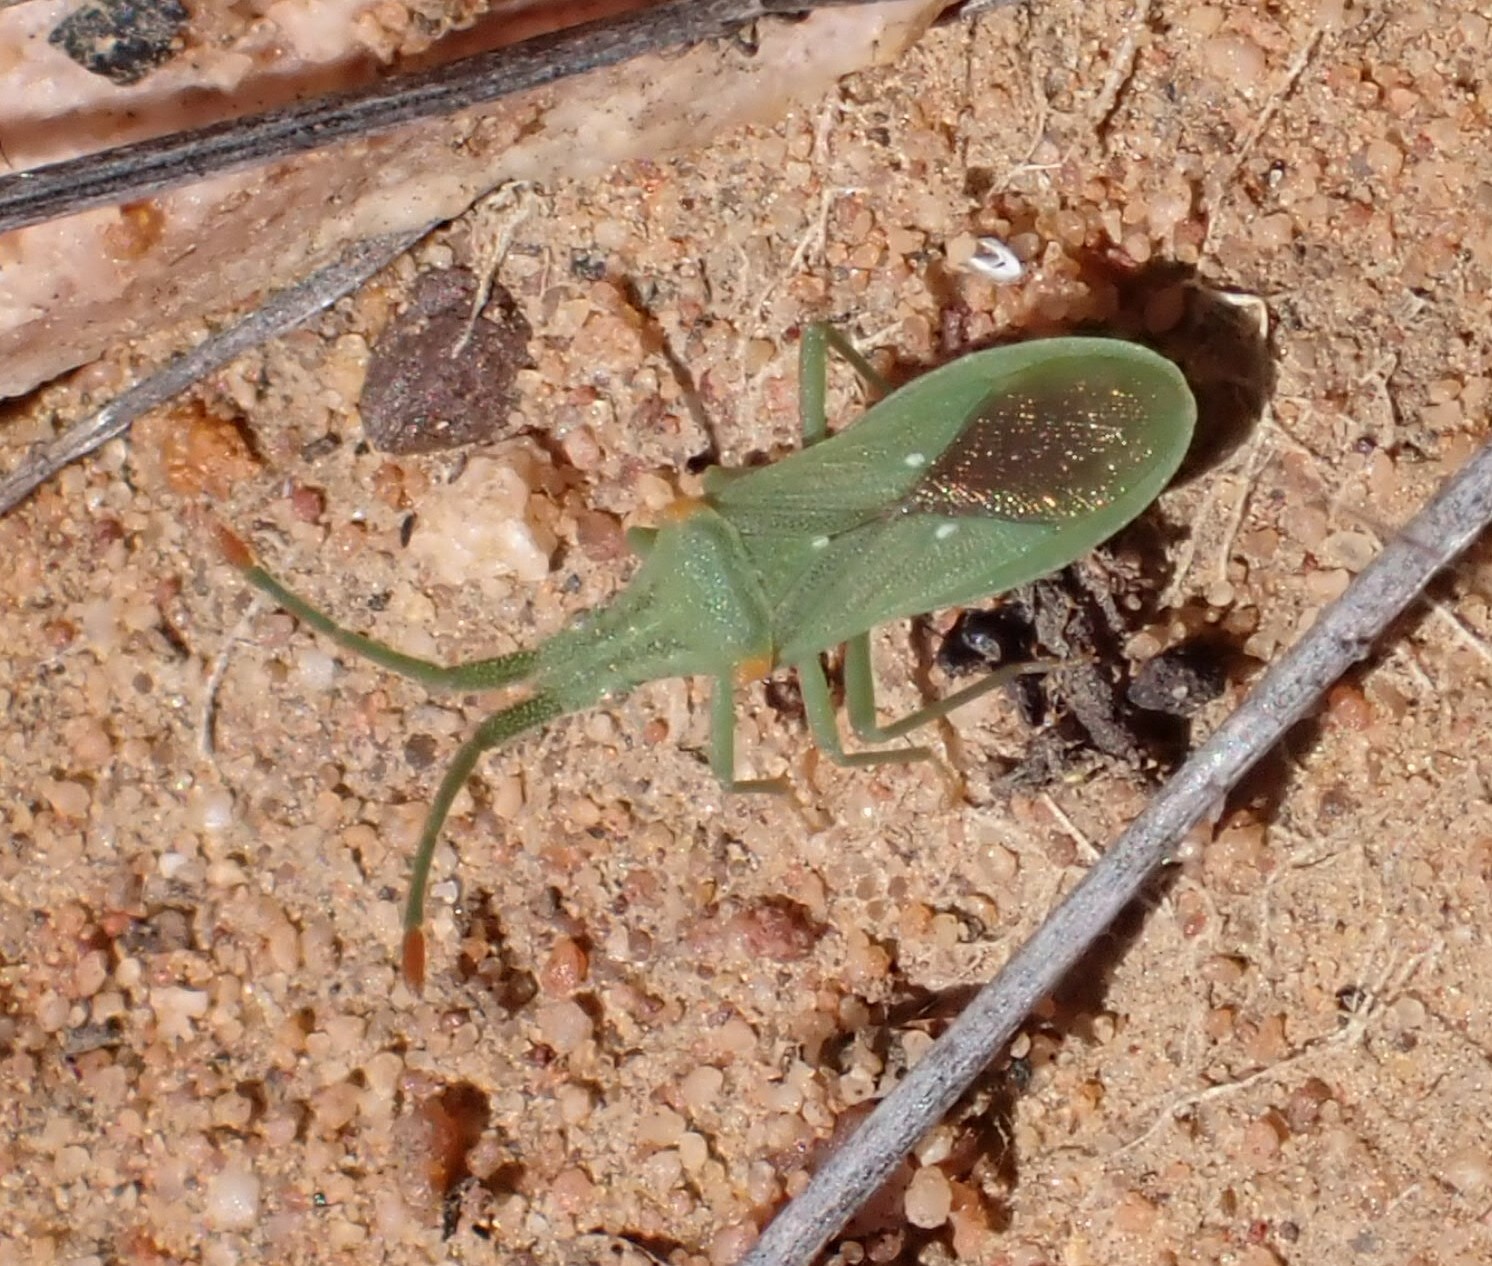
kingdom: Animalia
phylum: Arthropoda
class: Insecta
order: Hemiptera
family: Coreidae
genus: Brotheolus
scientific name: Brotheolus viridis
